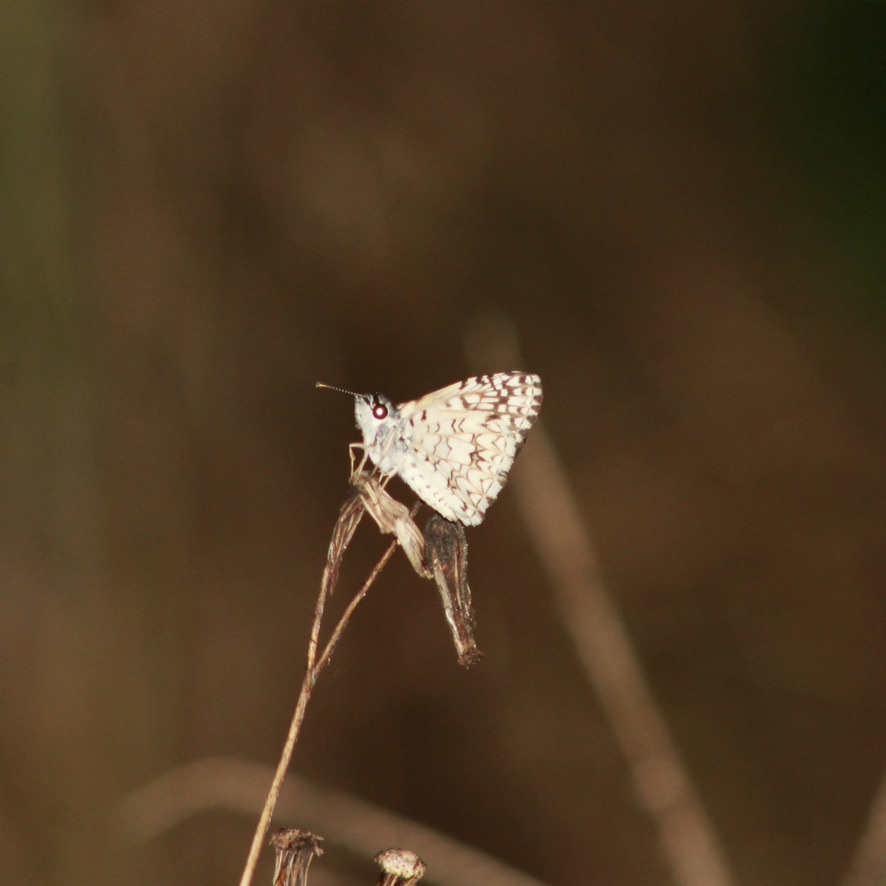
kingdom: Animalia
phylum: Arthropoda
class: Insecta
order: Lepidoptera
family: Hesperiidae
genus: Pyrgus
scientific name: Pyrgus oileus
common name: Tropical checkered-skipper
